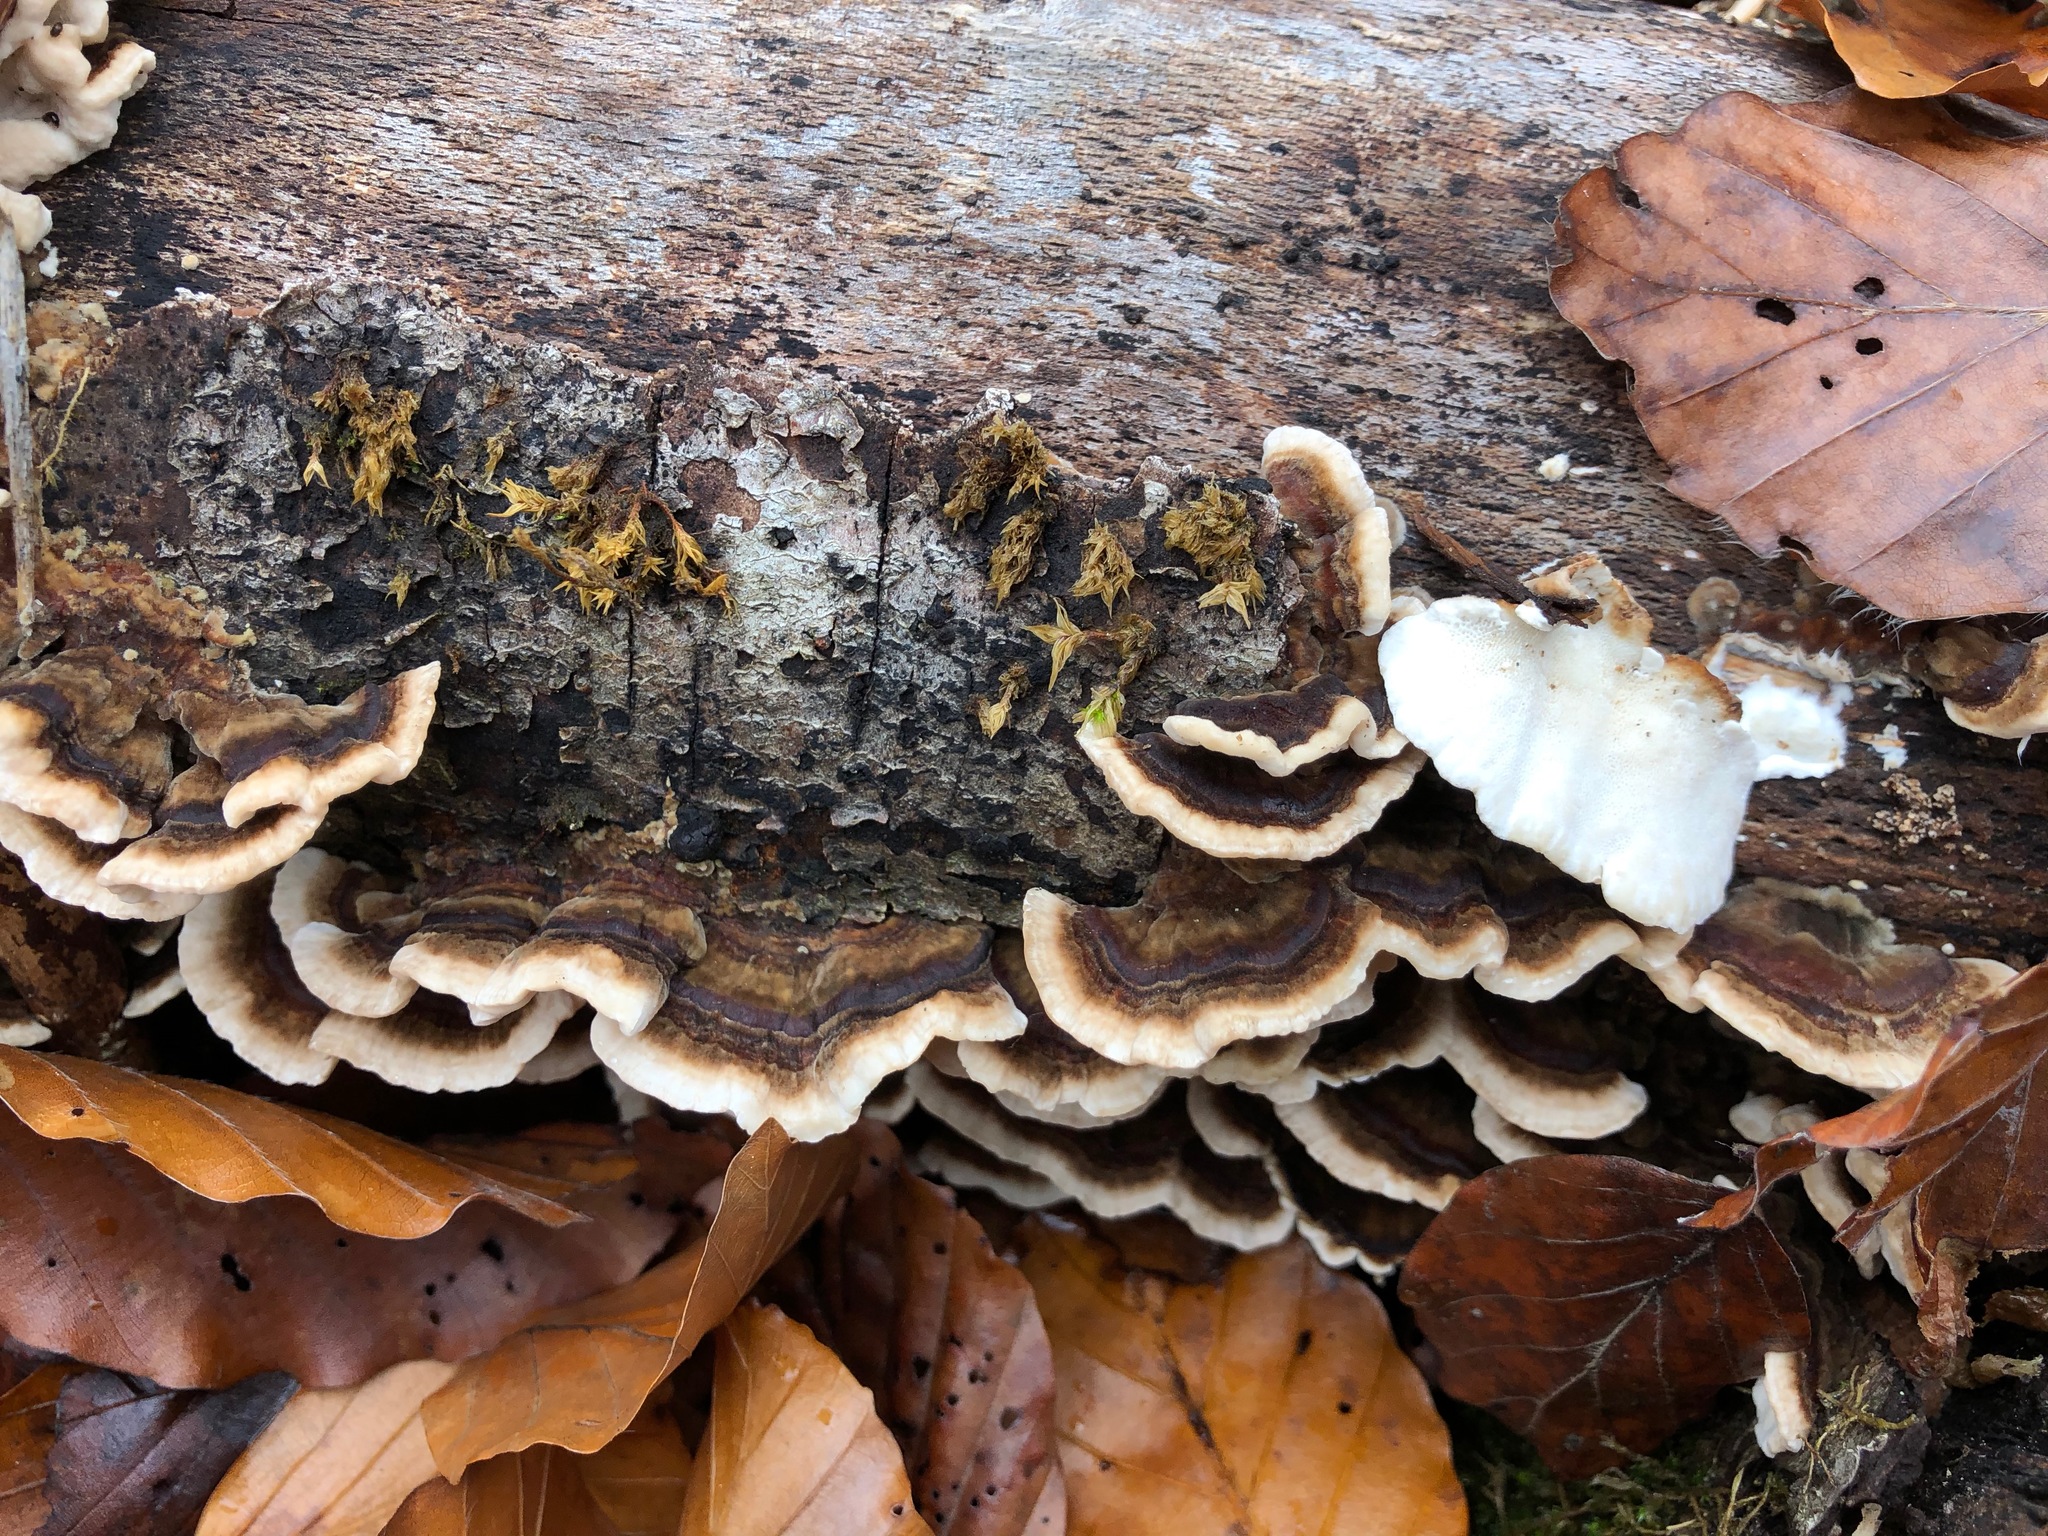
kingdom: Fungi
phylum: Basidiomycota
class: Agaricomycetes
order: Polyporales
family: Polyporaceae
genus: Trametes
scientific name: Trametes versicolor
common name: Turkeytail
